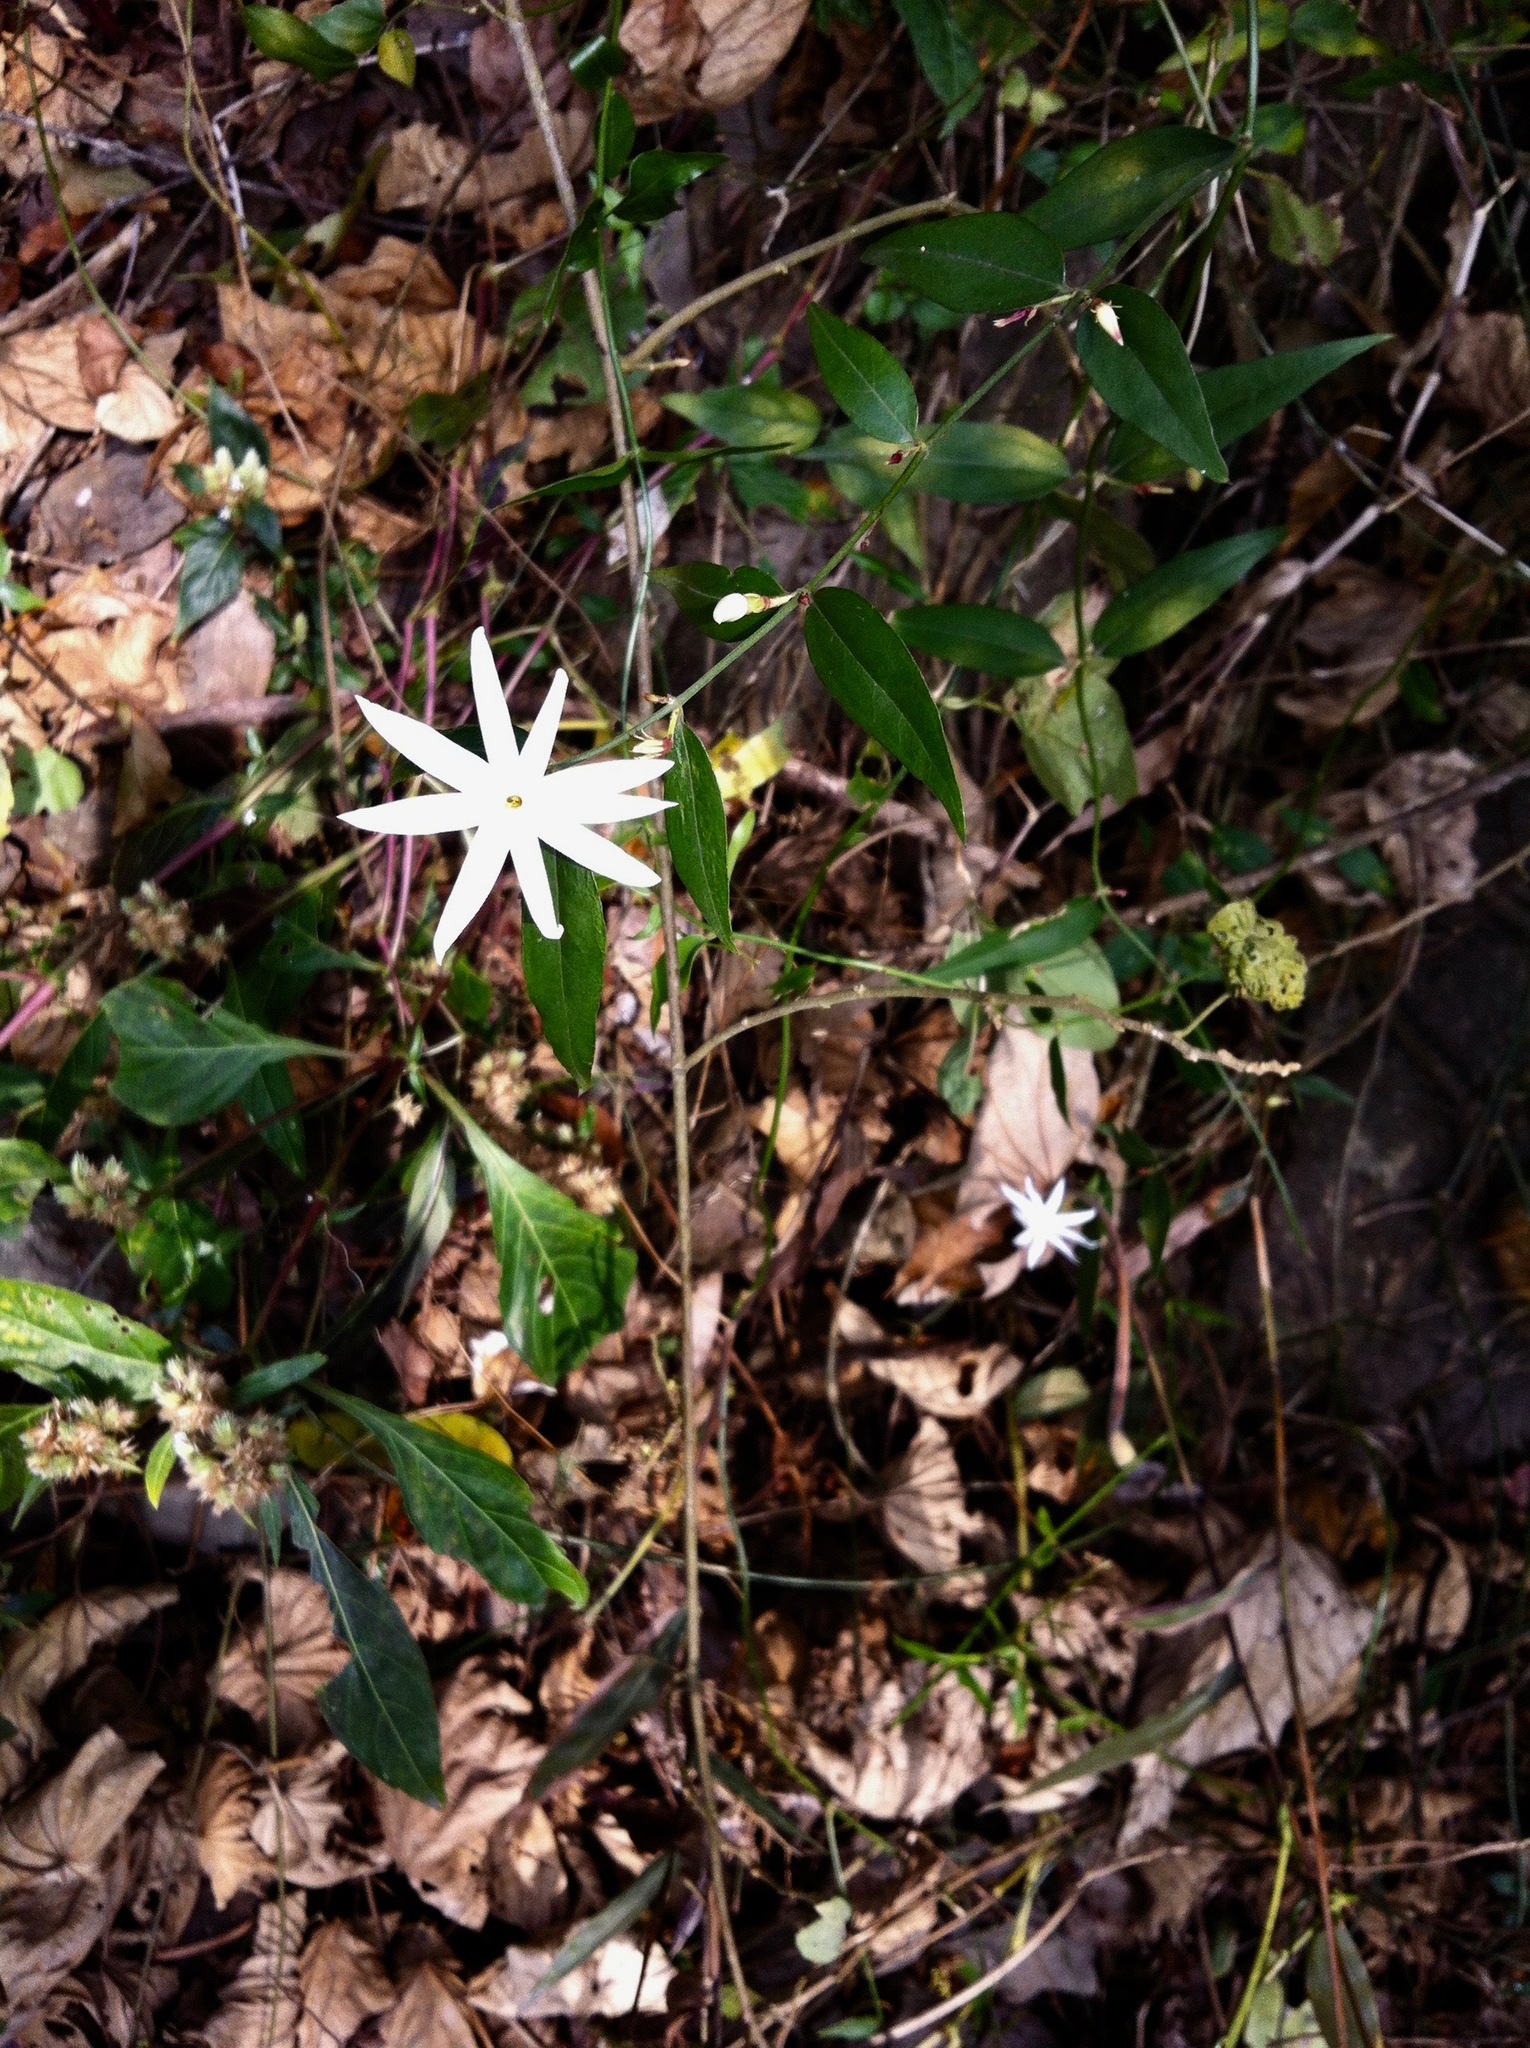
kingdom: Plantae
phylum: Tracheophyta
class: Magnoliopsida
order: Lamiales
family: Oleaceae
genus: Jasminum
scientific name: Jasminum nervosum
